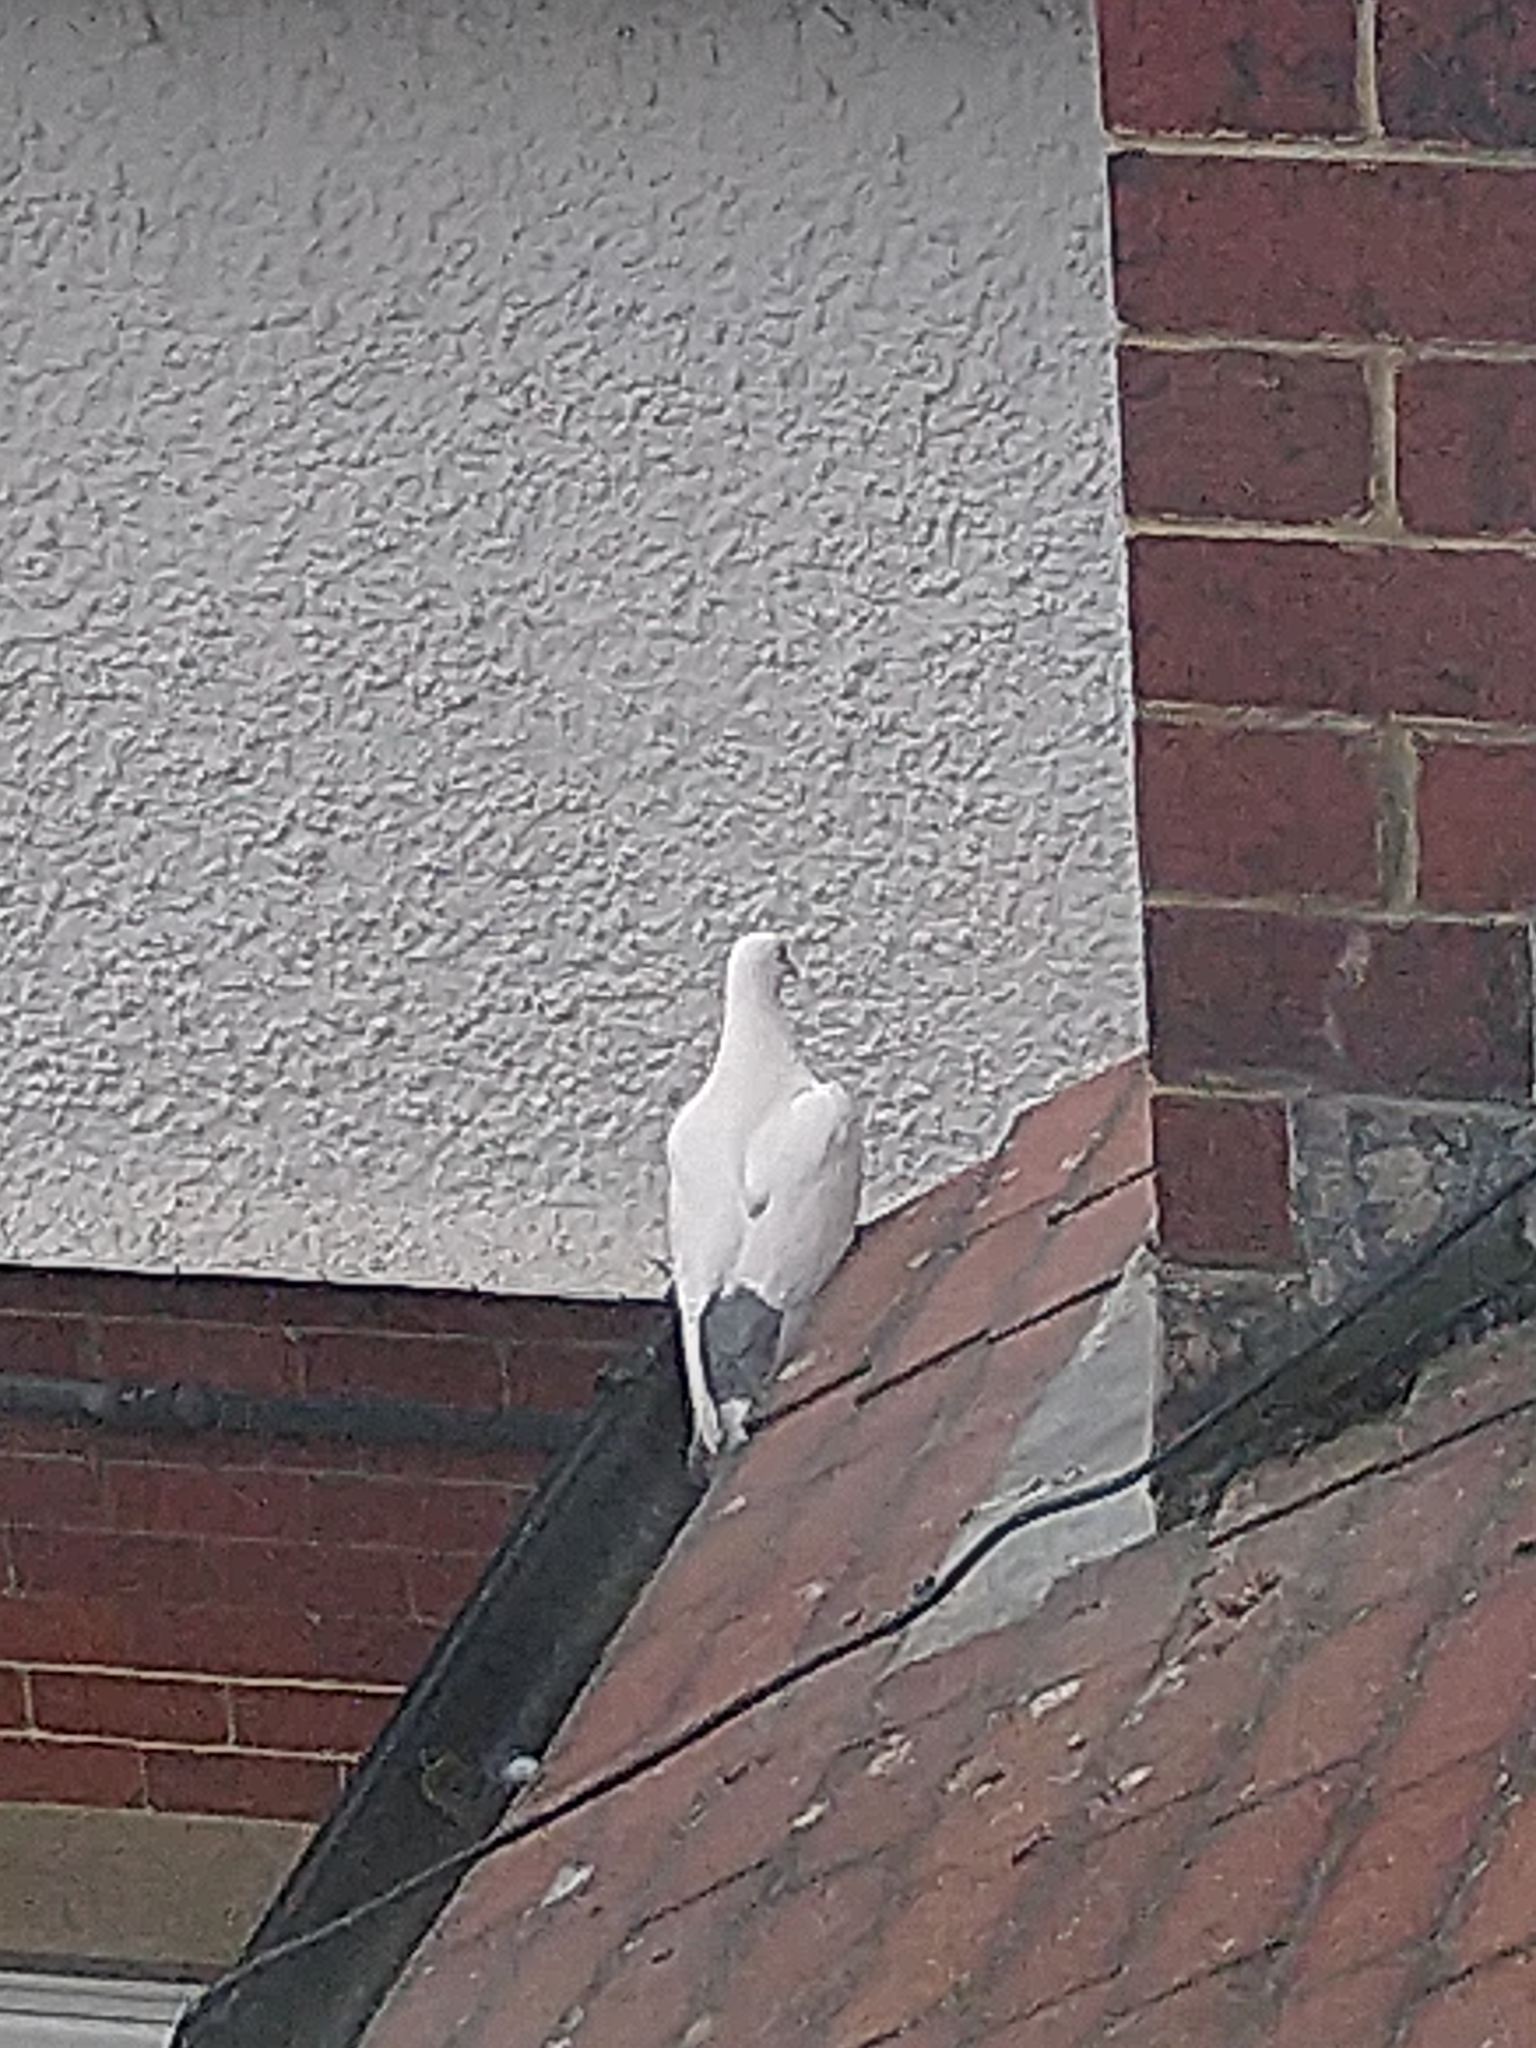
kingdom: Animalia
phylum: Chordata
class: Aves
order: Columbiformes
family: Columbidae
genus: Columba
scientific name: Columba livia
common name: Rock pigeon
